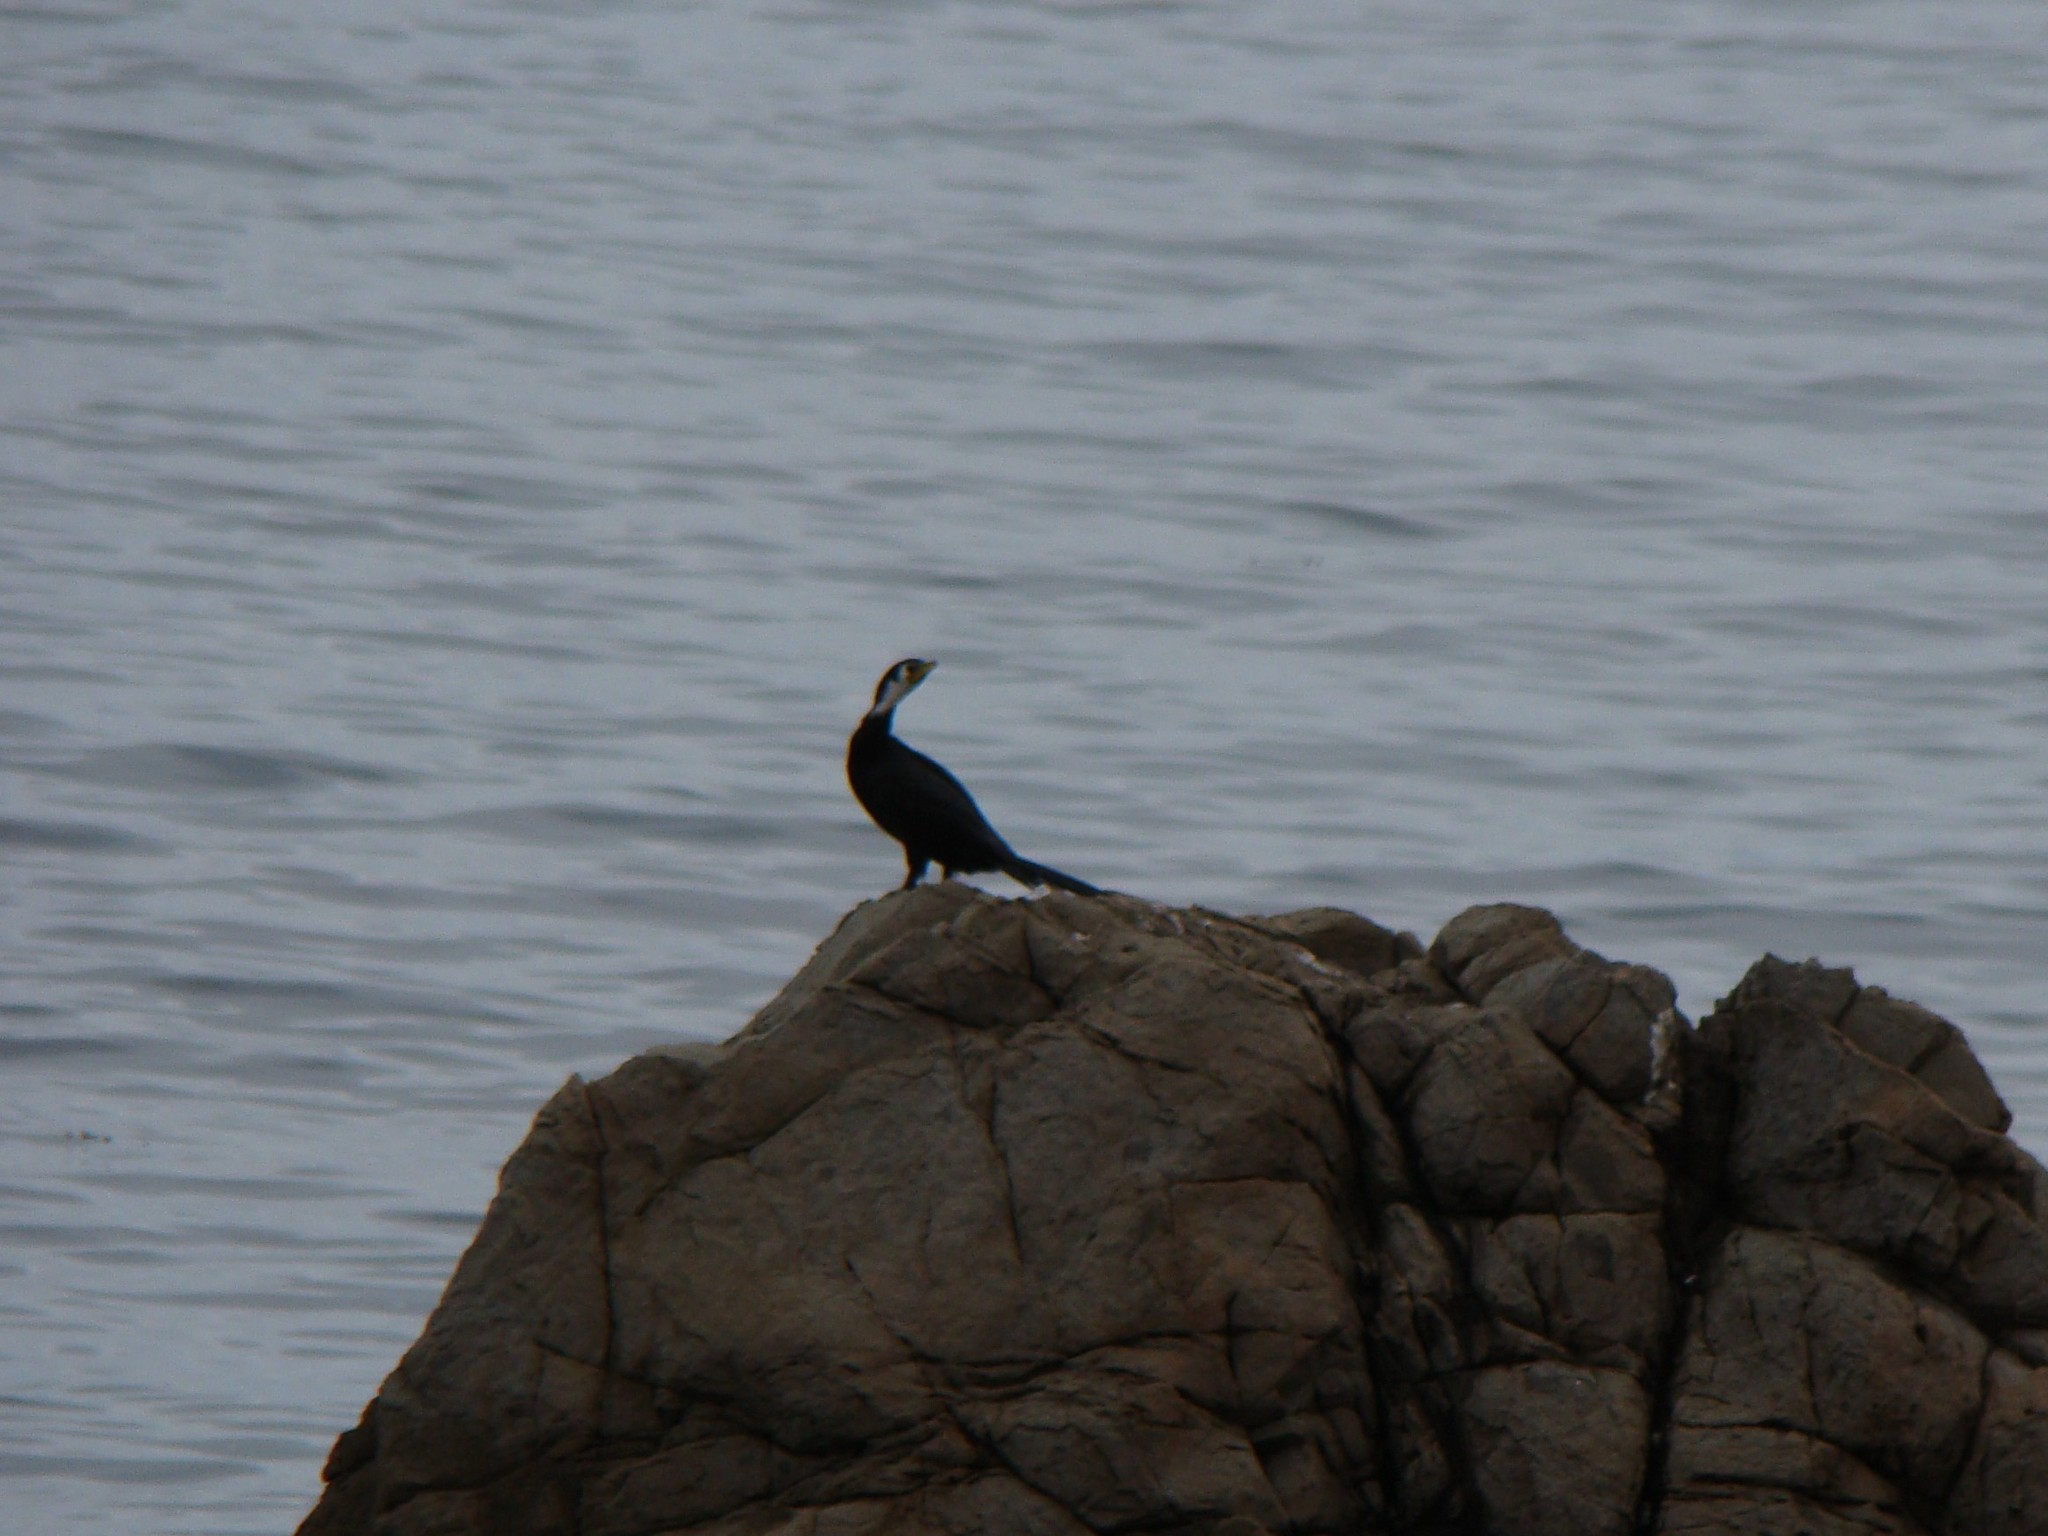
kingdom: Animalia
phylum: Chordata
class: Aves
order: Suliformes
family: Phalacrocoracidae
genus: Microcarbo
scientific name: Microcarbo melanoleucos
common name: Little pied cormorant
